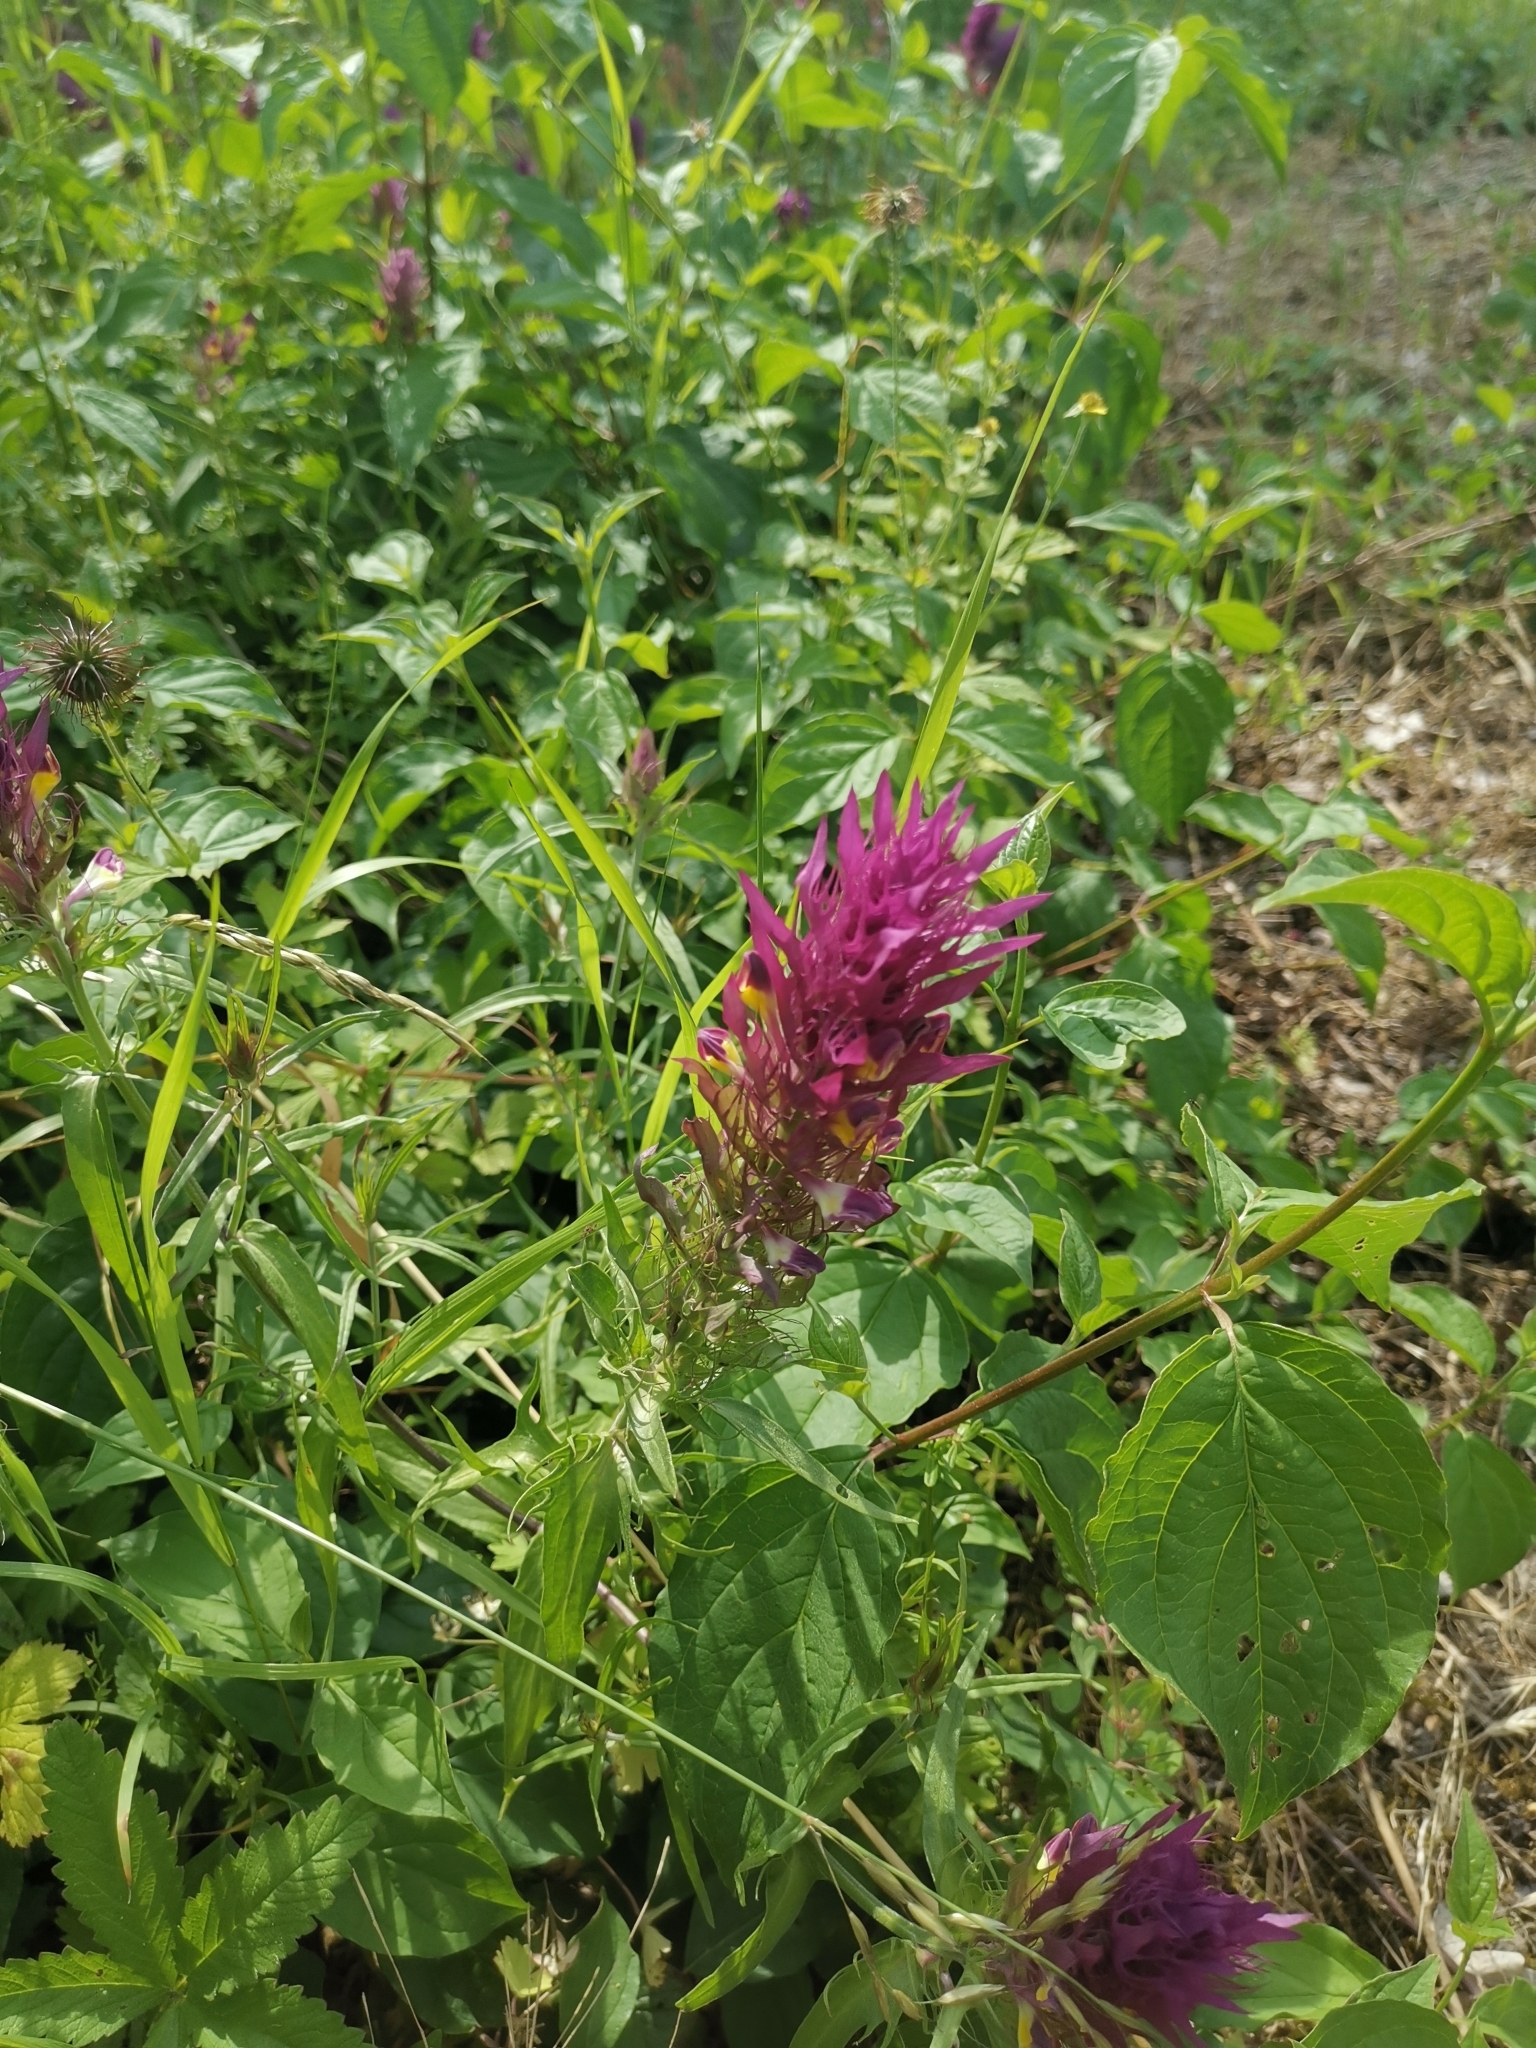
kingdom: Plantae
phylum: Tracheophyta
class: Magnoliopsida
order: Lamiales
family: Orobanchaceae
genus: Melampyrum
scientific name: Melampyrum arvense
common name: Field cow-wheat
